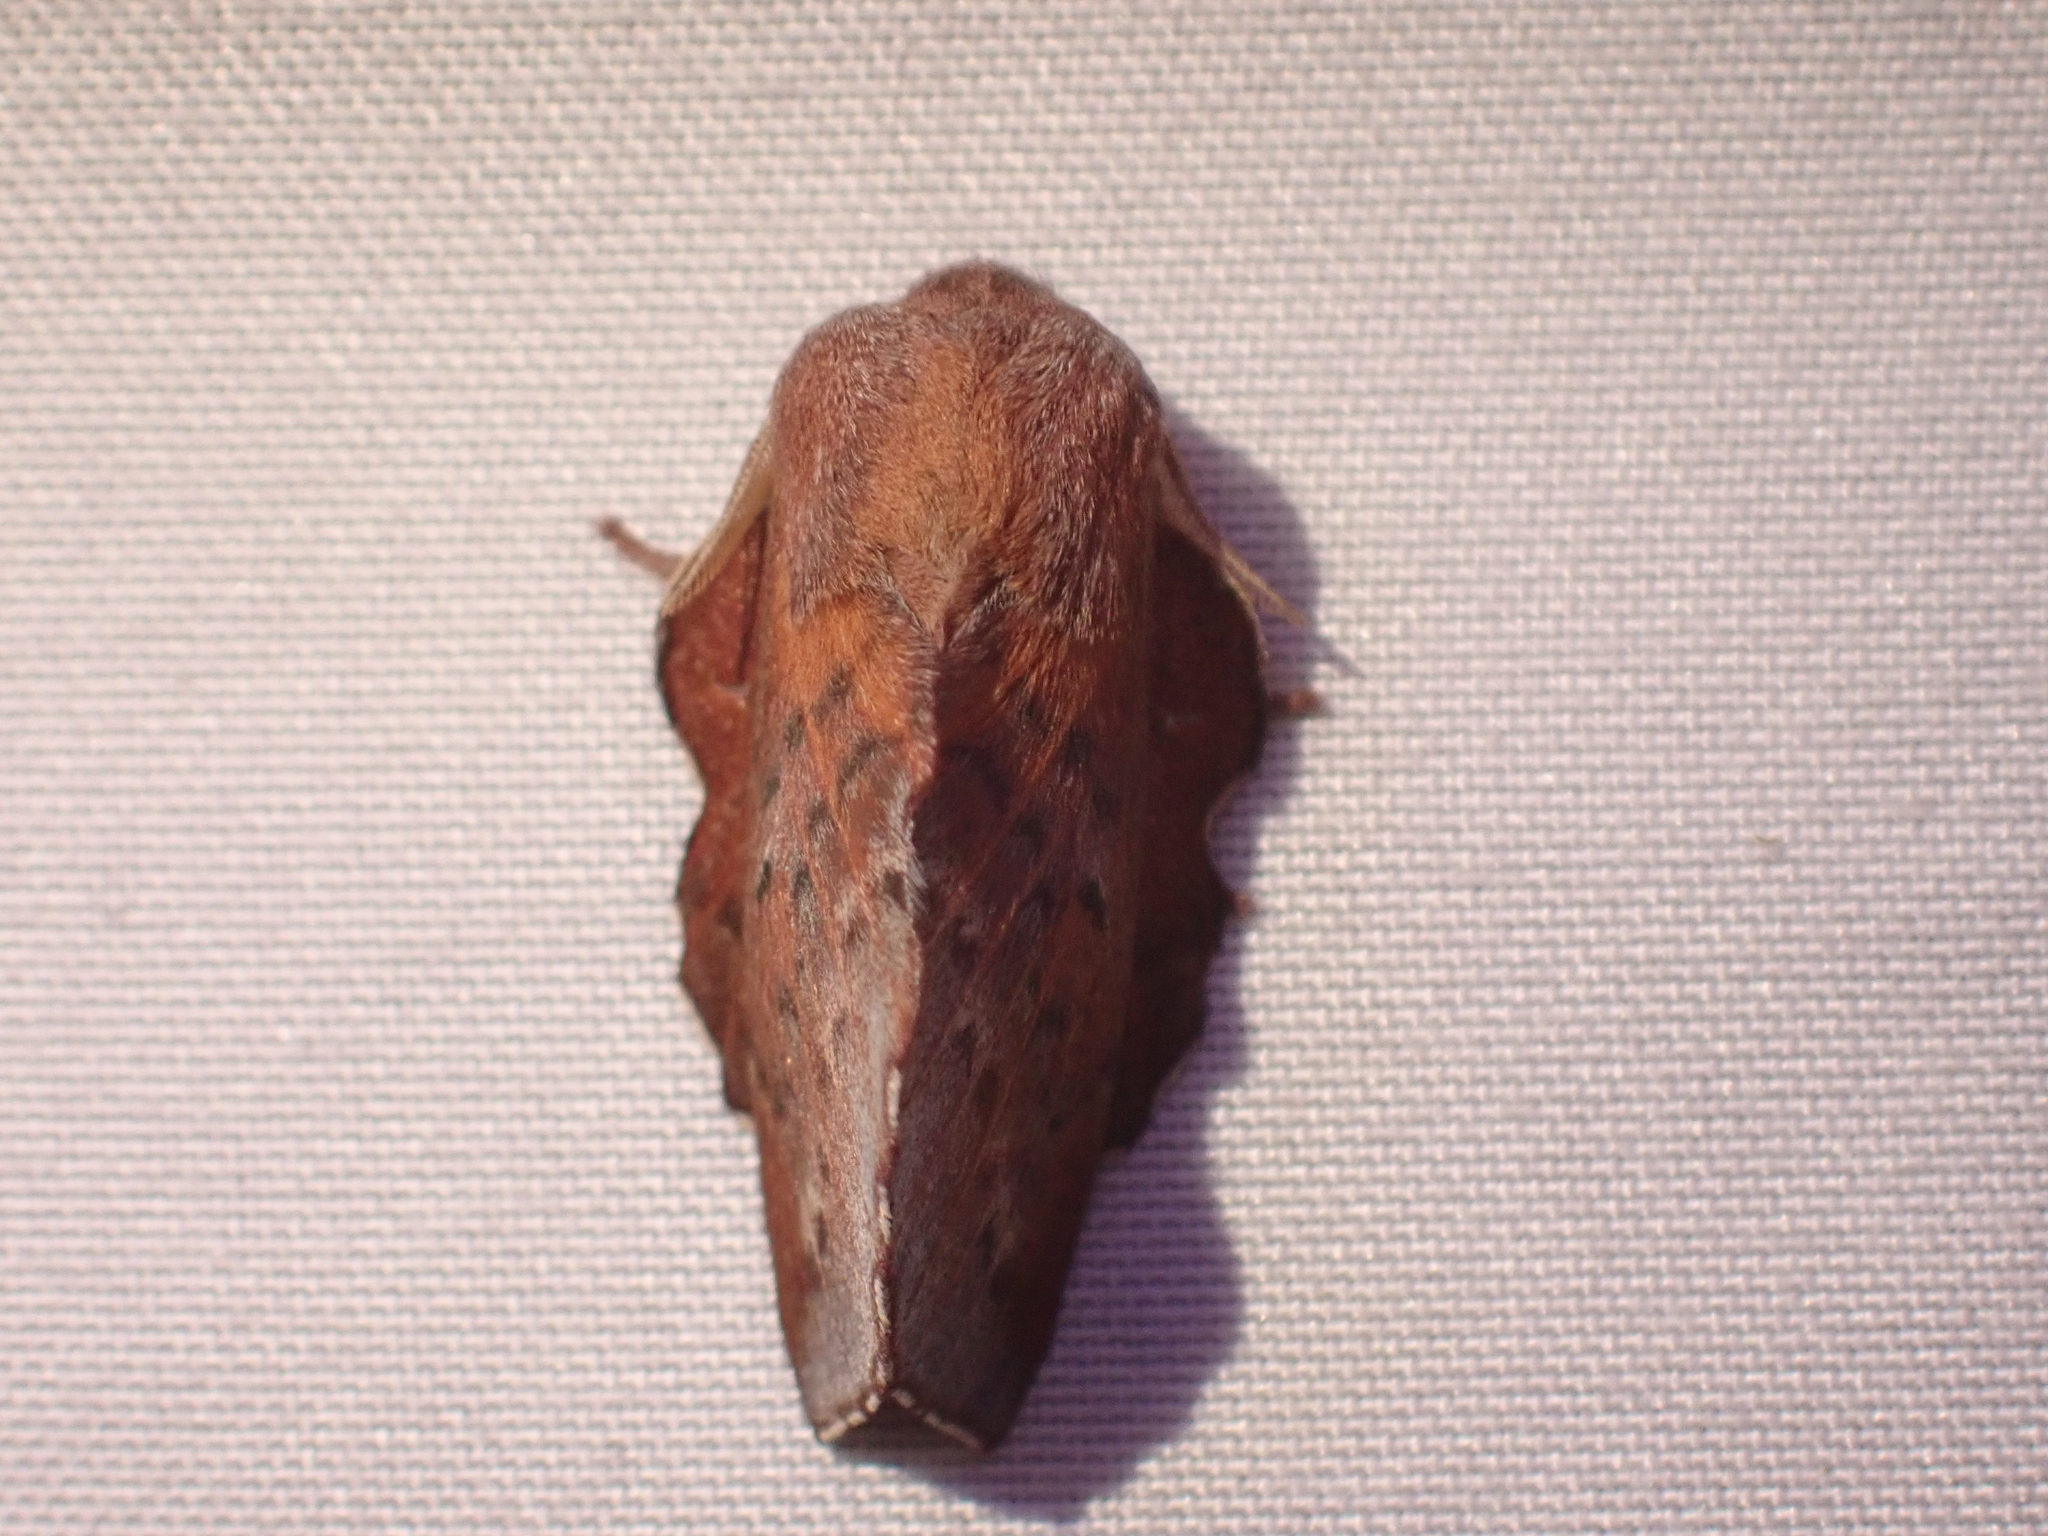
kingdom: Animalia
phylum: Arthropoda
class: Insecta
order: Lepidoptera
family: Lasiocampidae
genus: Phyllodesma
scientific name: Phyllodesma americana
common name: American lappet moth
